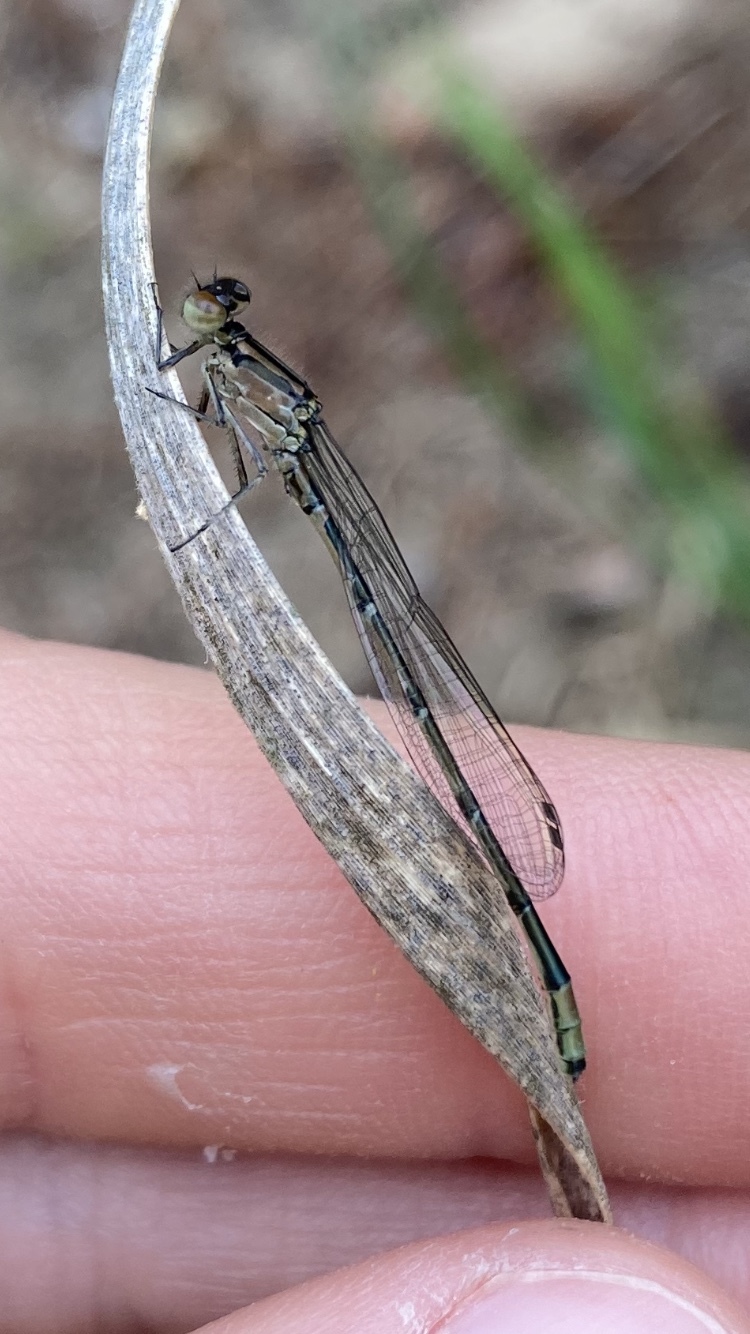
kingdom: Animalia
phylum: Arthropoda
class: Insecta
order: Odonata
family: Coenagrionidae
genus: Enallagma
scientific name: Enallagma geminatum
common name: Skimming bluet
